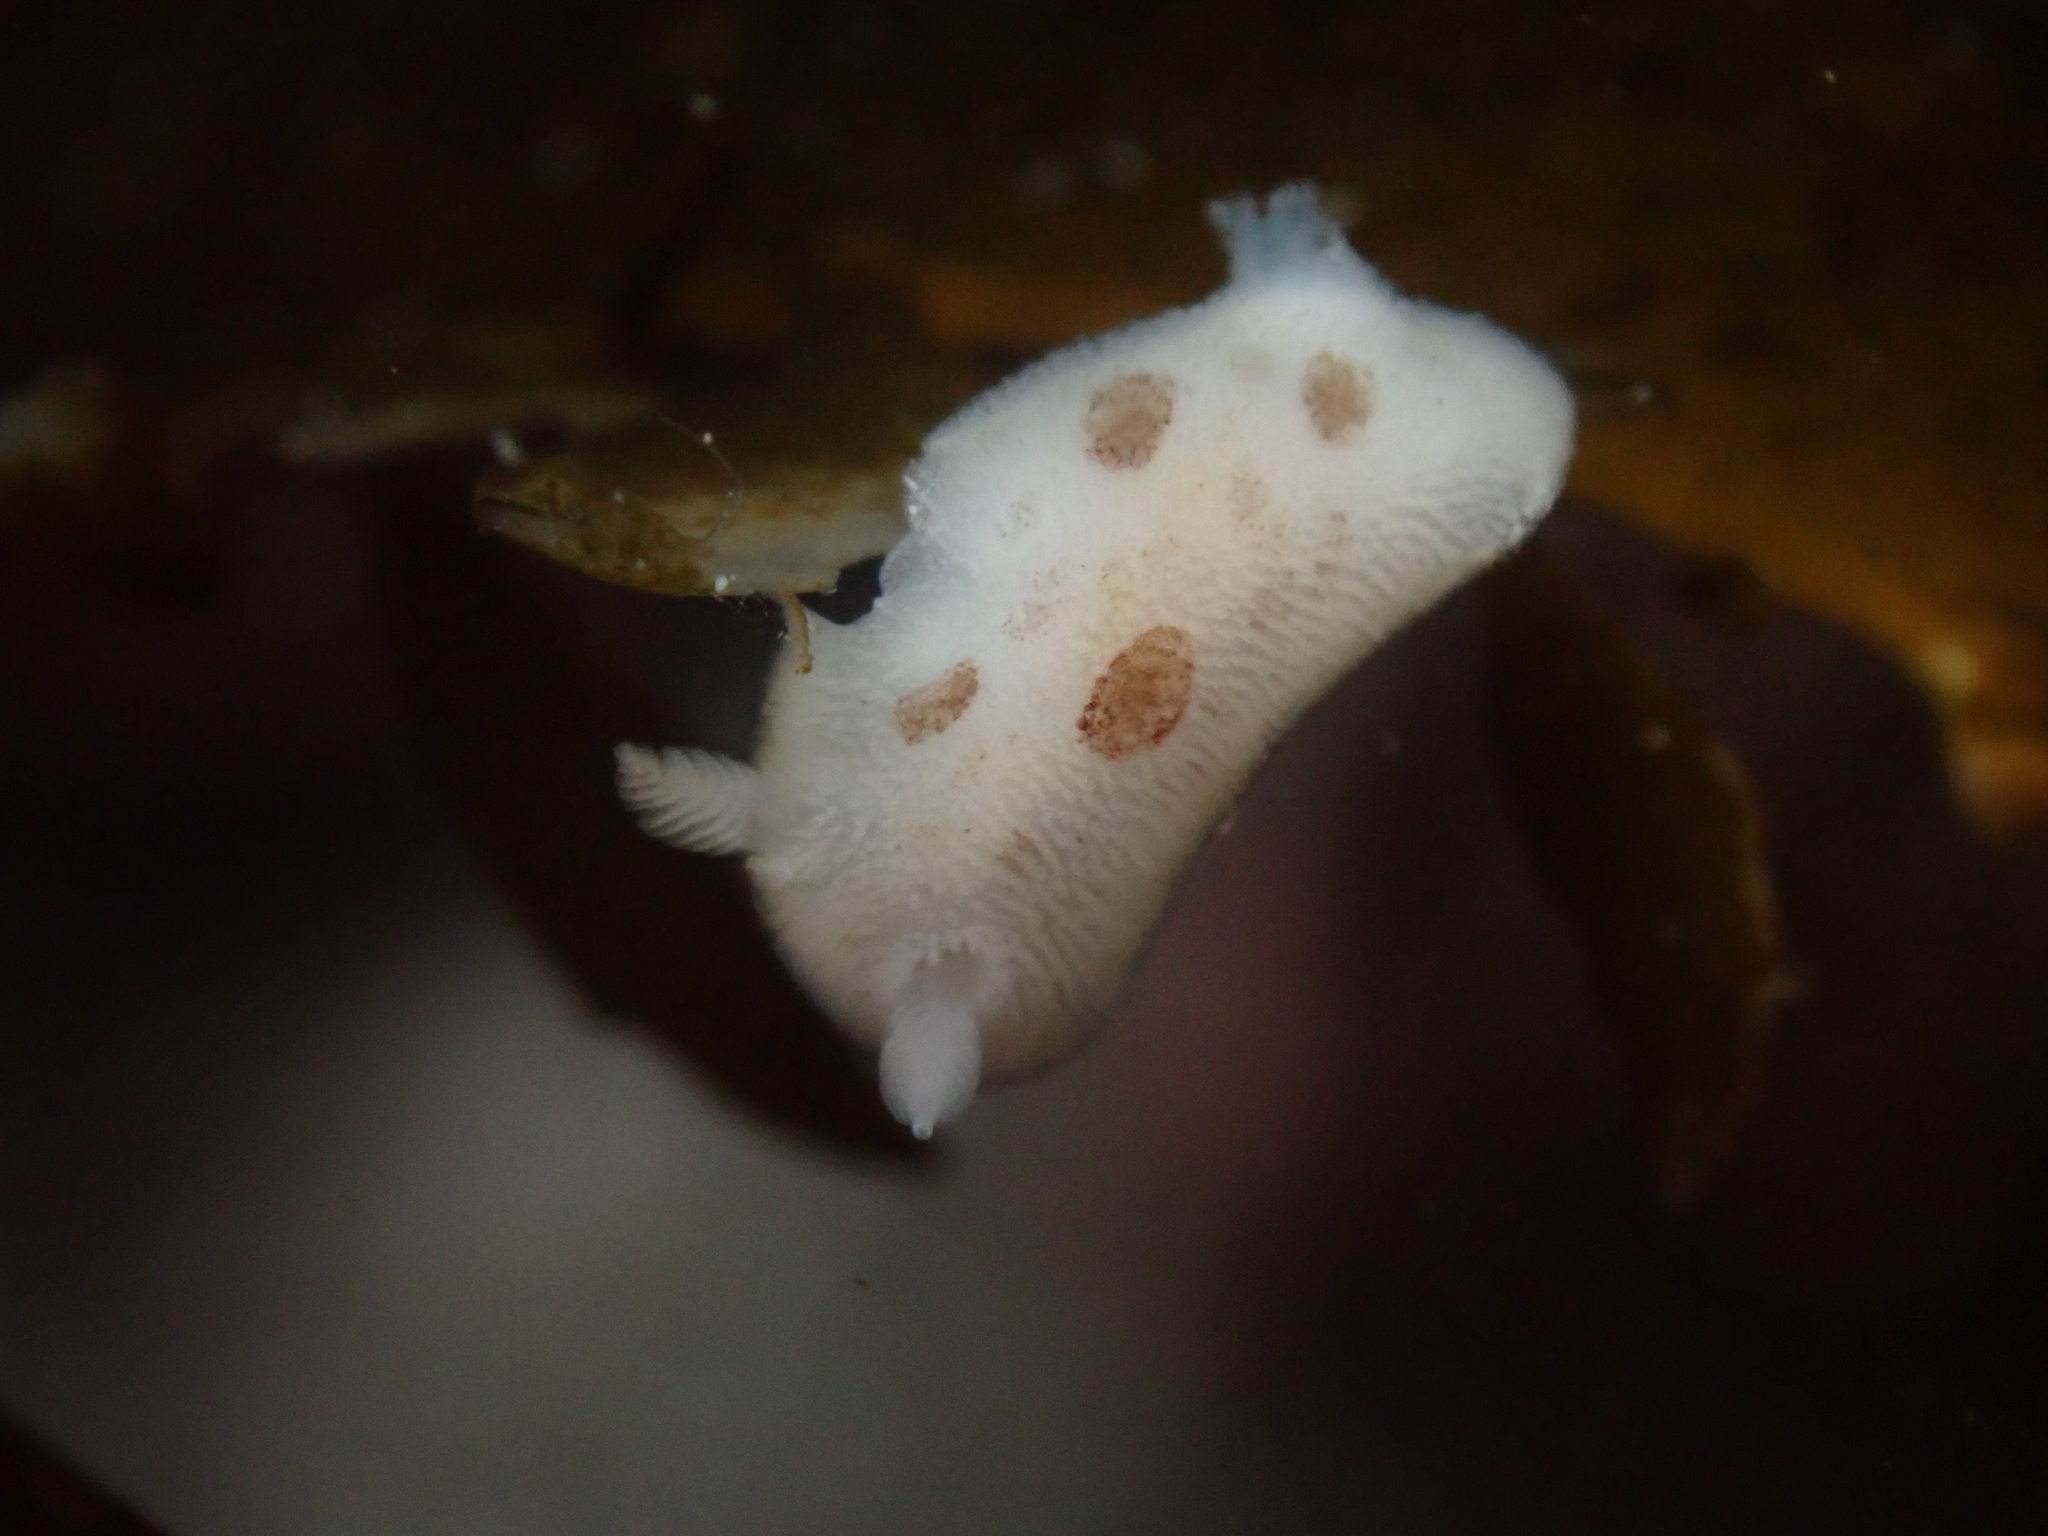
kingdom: Animalia
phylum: Mollusca
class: Gastropoda
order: Nudibranchia
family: Discodorididae
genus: Diaulula
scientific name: Diaulula sandiegensis
